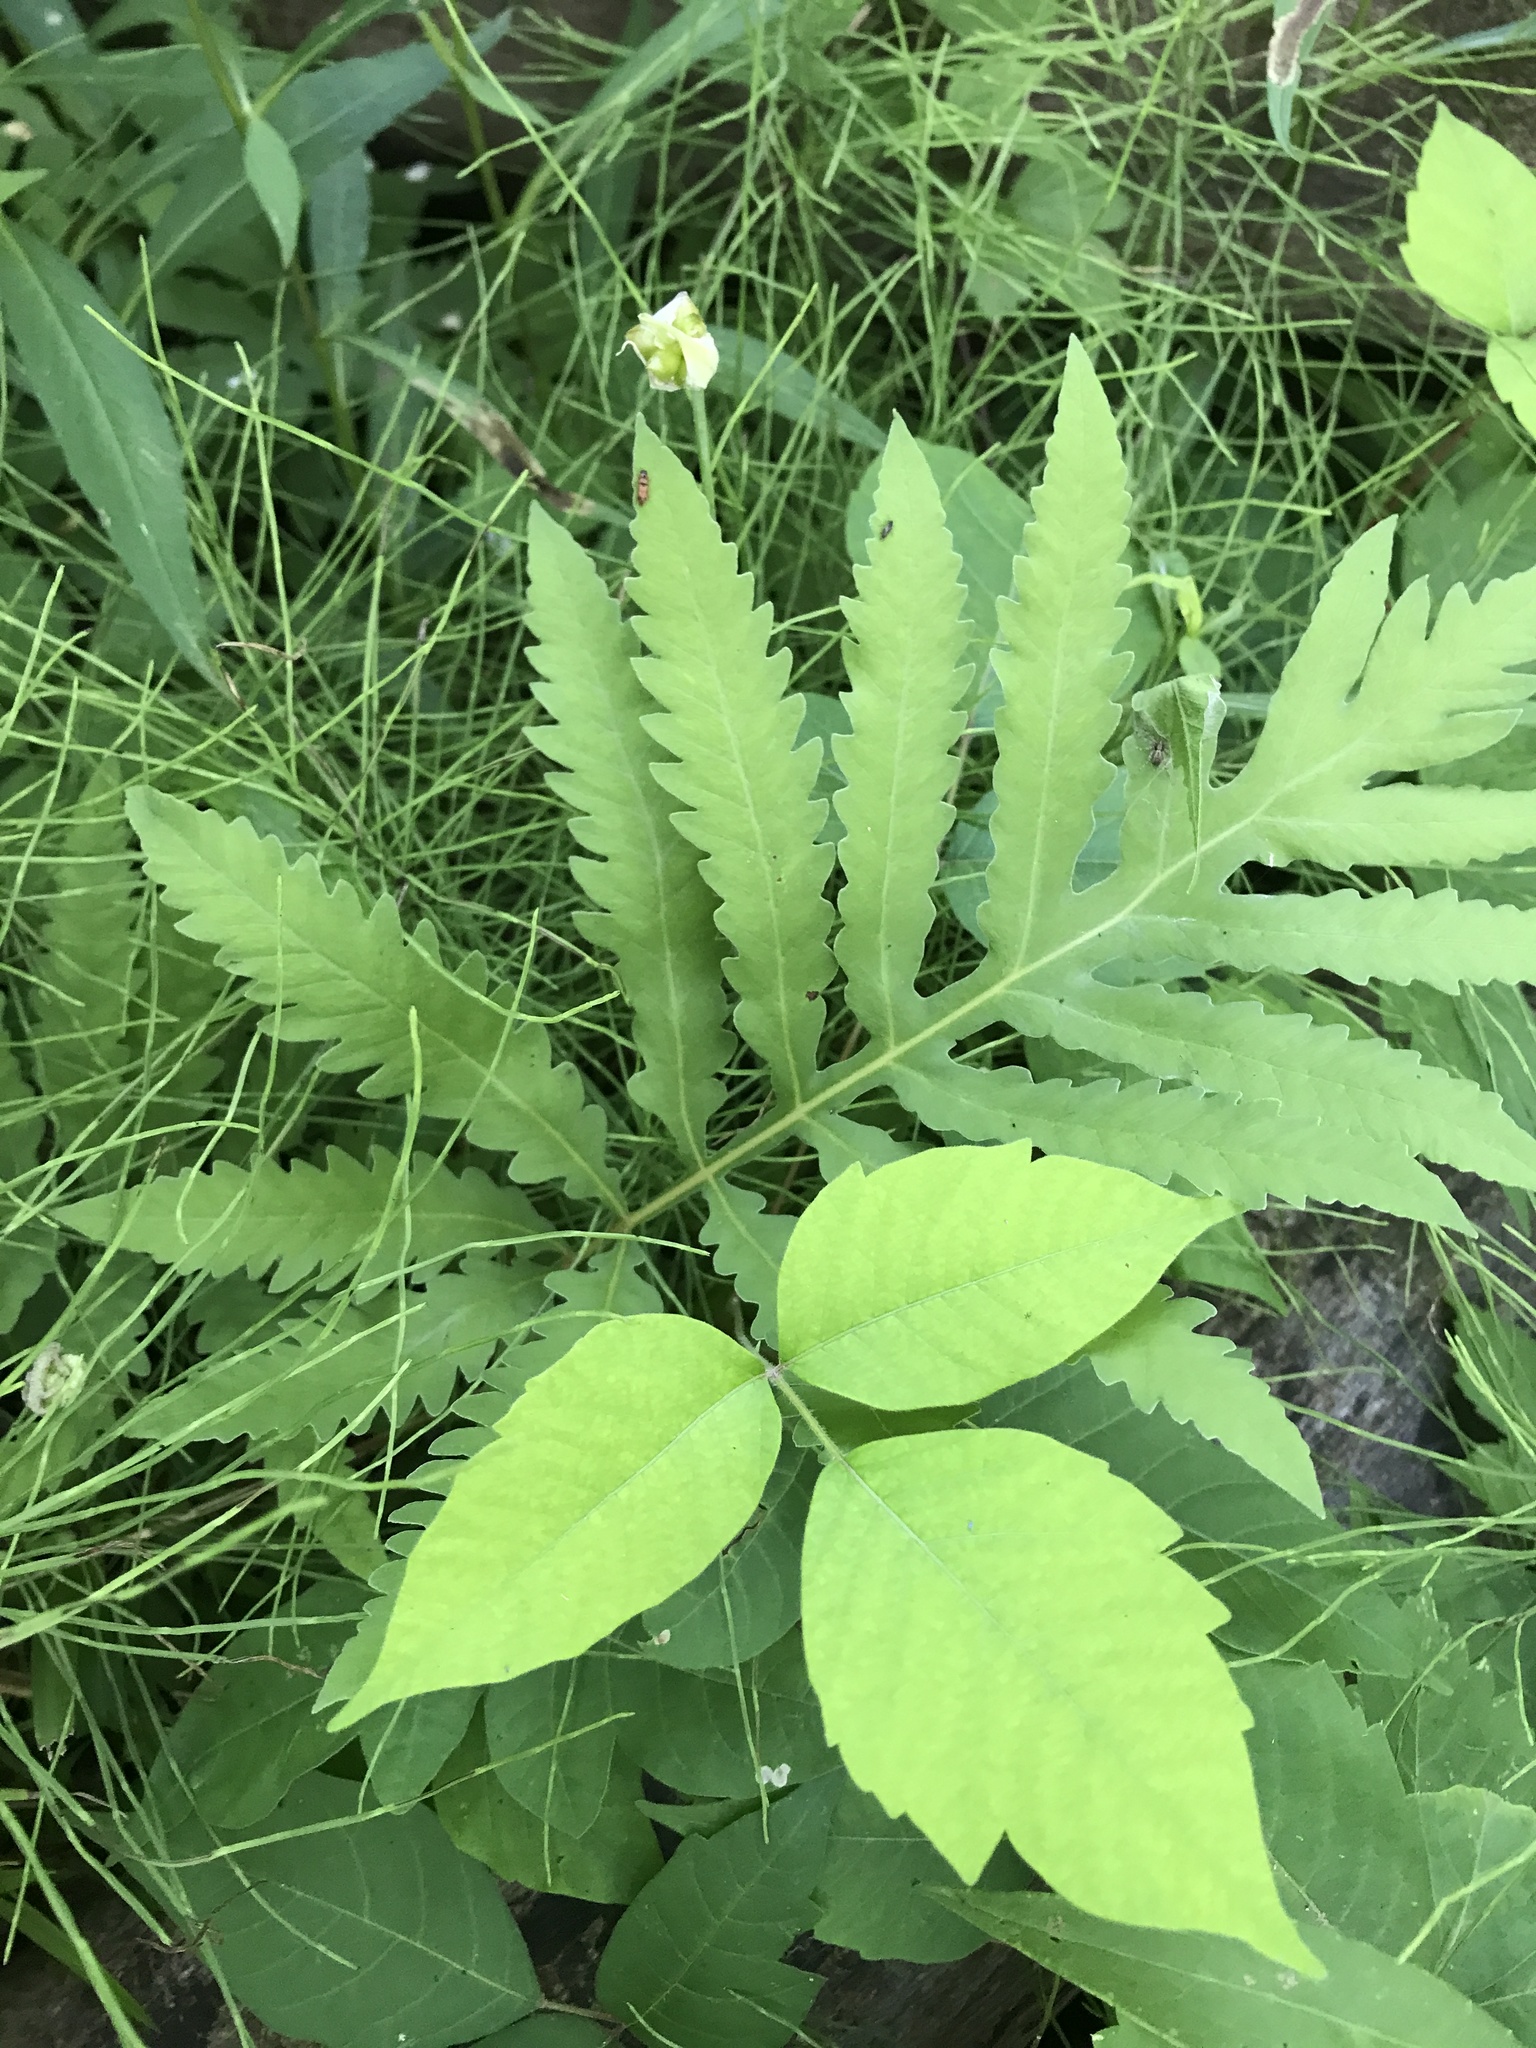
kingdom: Plantae
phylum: Tracheophyta
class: Polypodiopsida
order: Polypodiales
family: Onocleaceae
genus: Onoclea
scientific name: Onoclea sensibilis
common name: Sensitive fern
